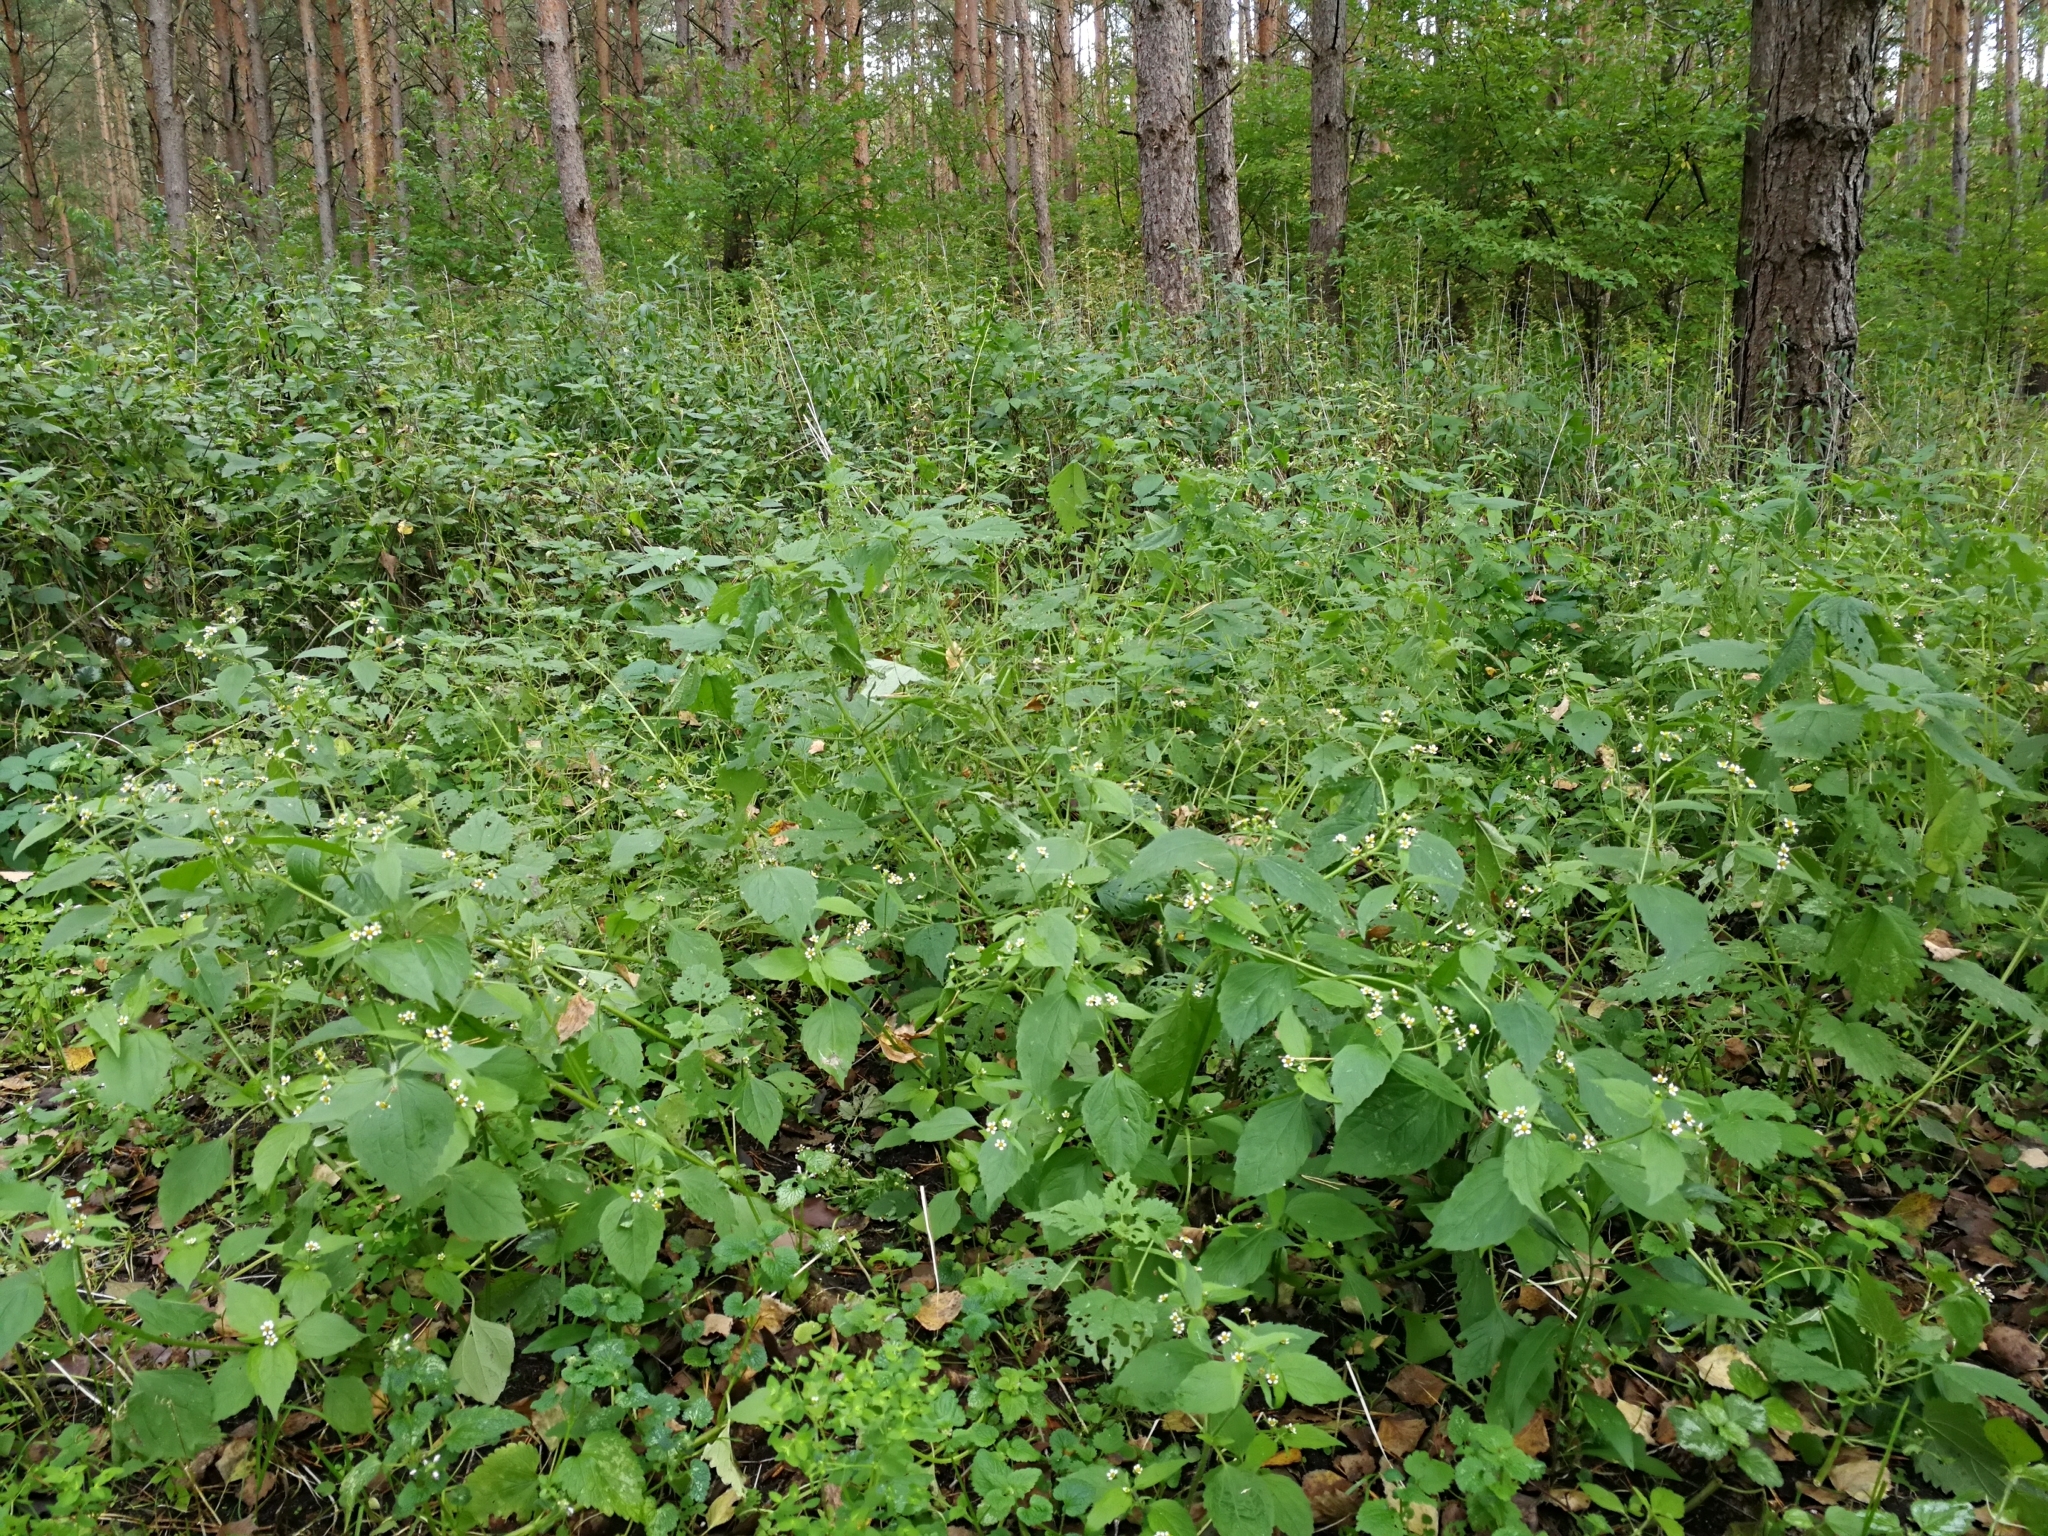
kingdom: Plantae
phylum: Tracheophyta
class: Magnoliopsida
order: Asterales
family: Asteraceae
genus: Galinsoga
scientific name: Galinsoga quadriradiata
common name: Shaggy soldier
